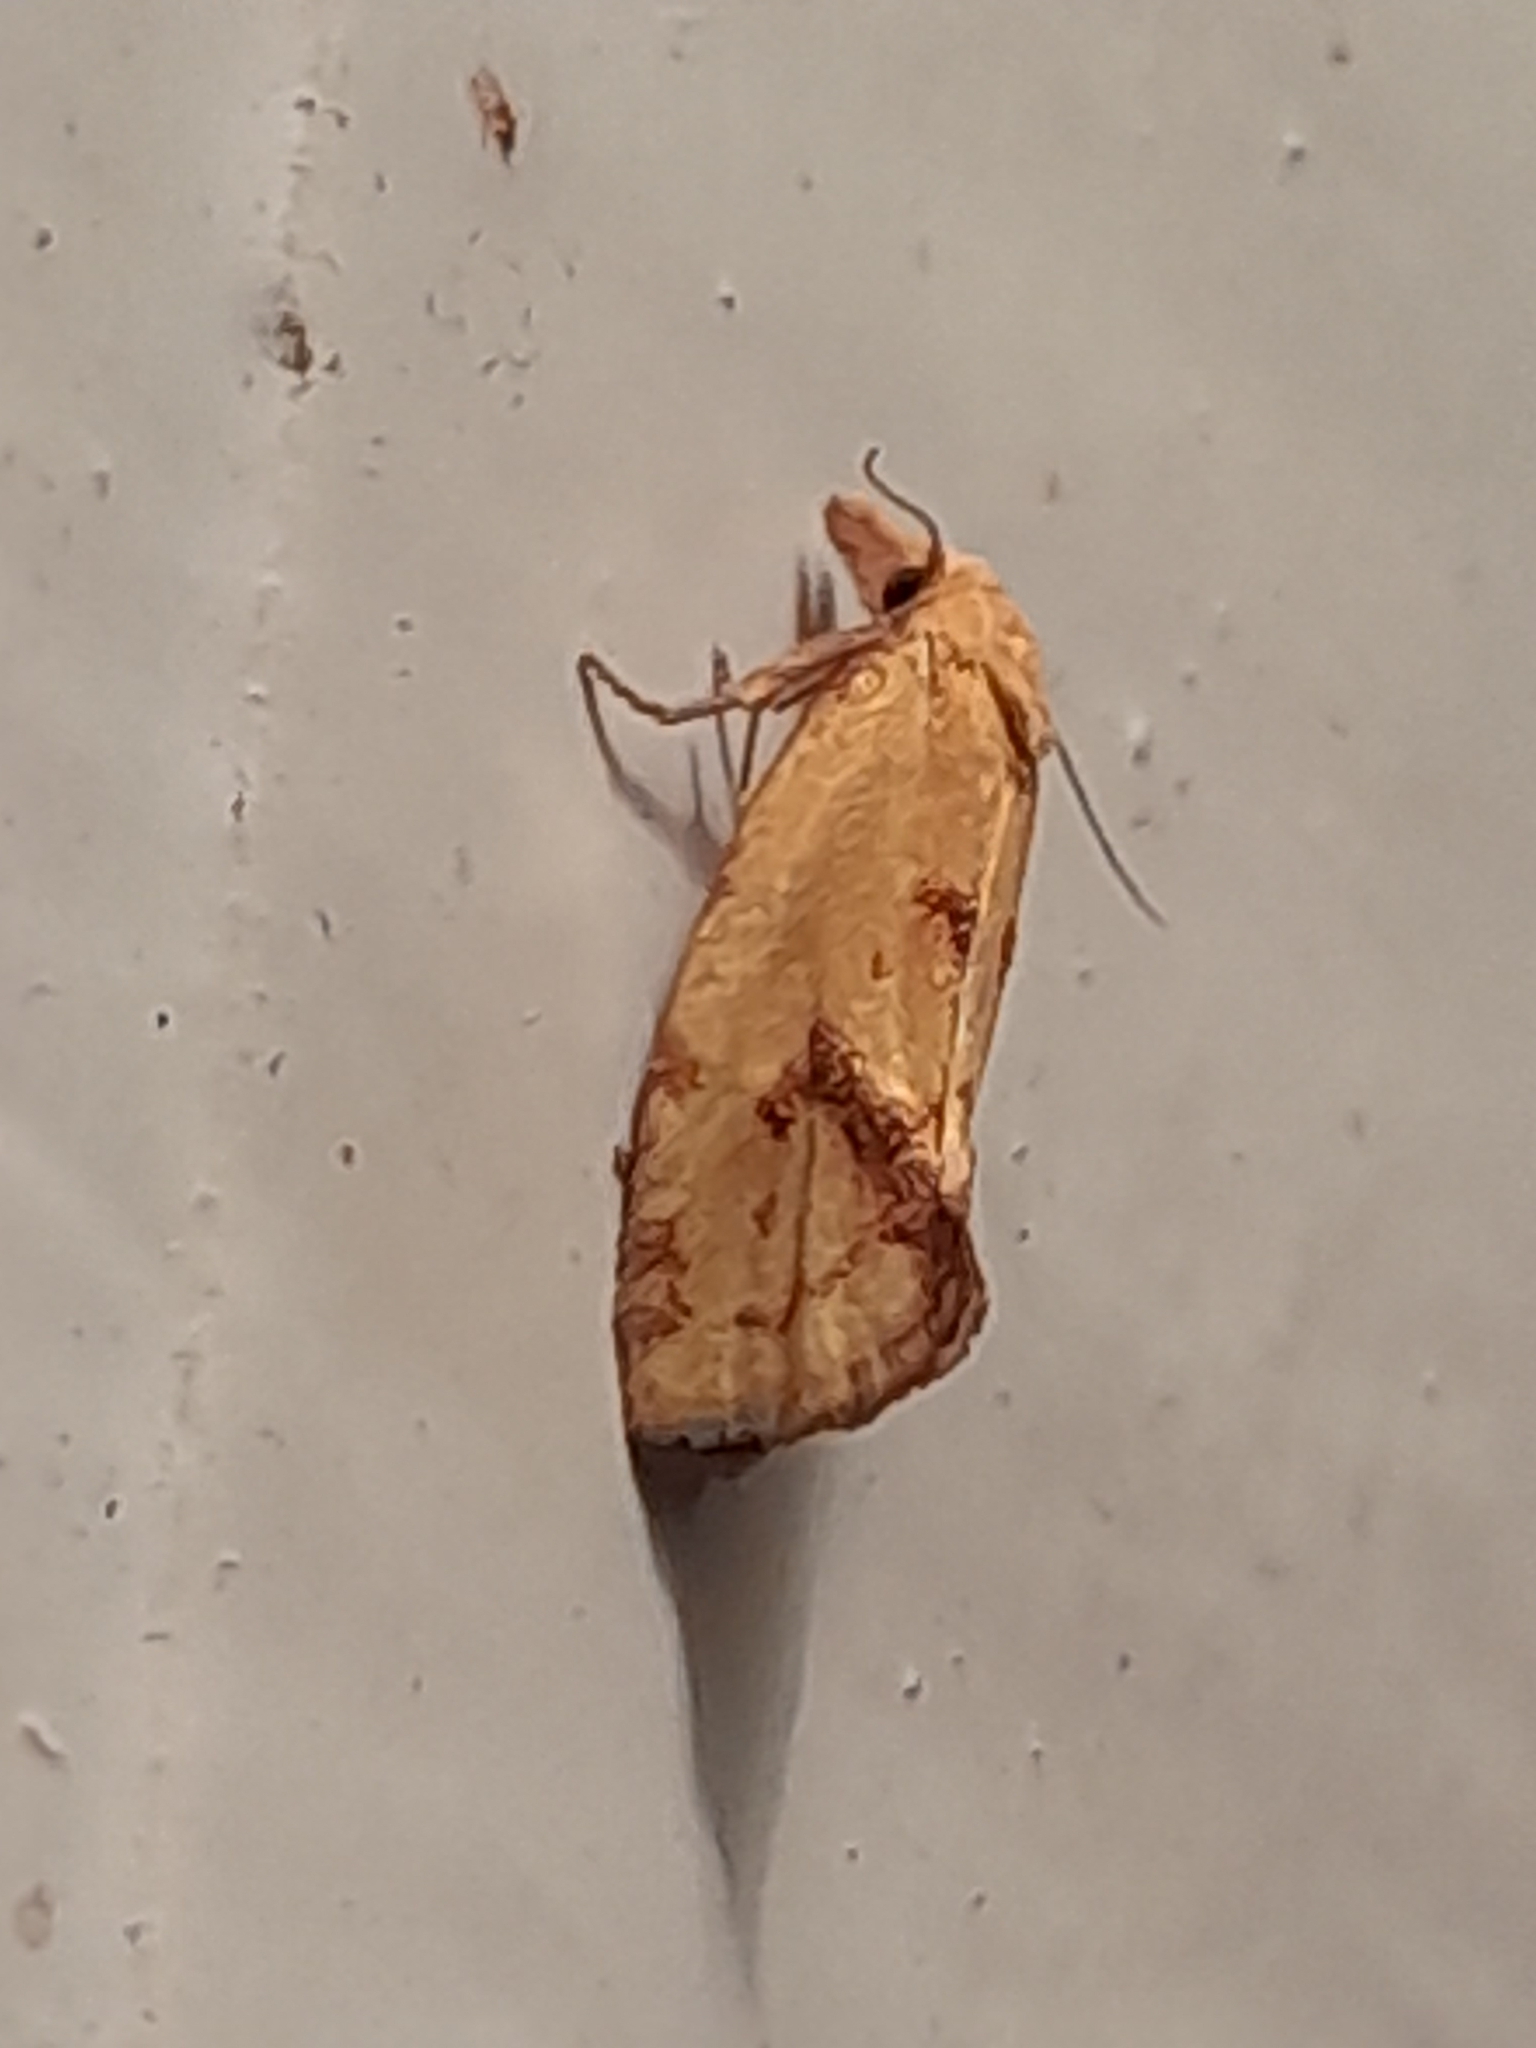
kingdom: Animalia
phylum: Arthropoda
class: Insecta
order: Lepidoptera
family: Tortricidae
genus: Agapeta
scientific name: Agapeta hamana
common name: Common yellow conch
